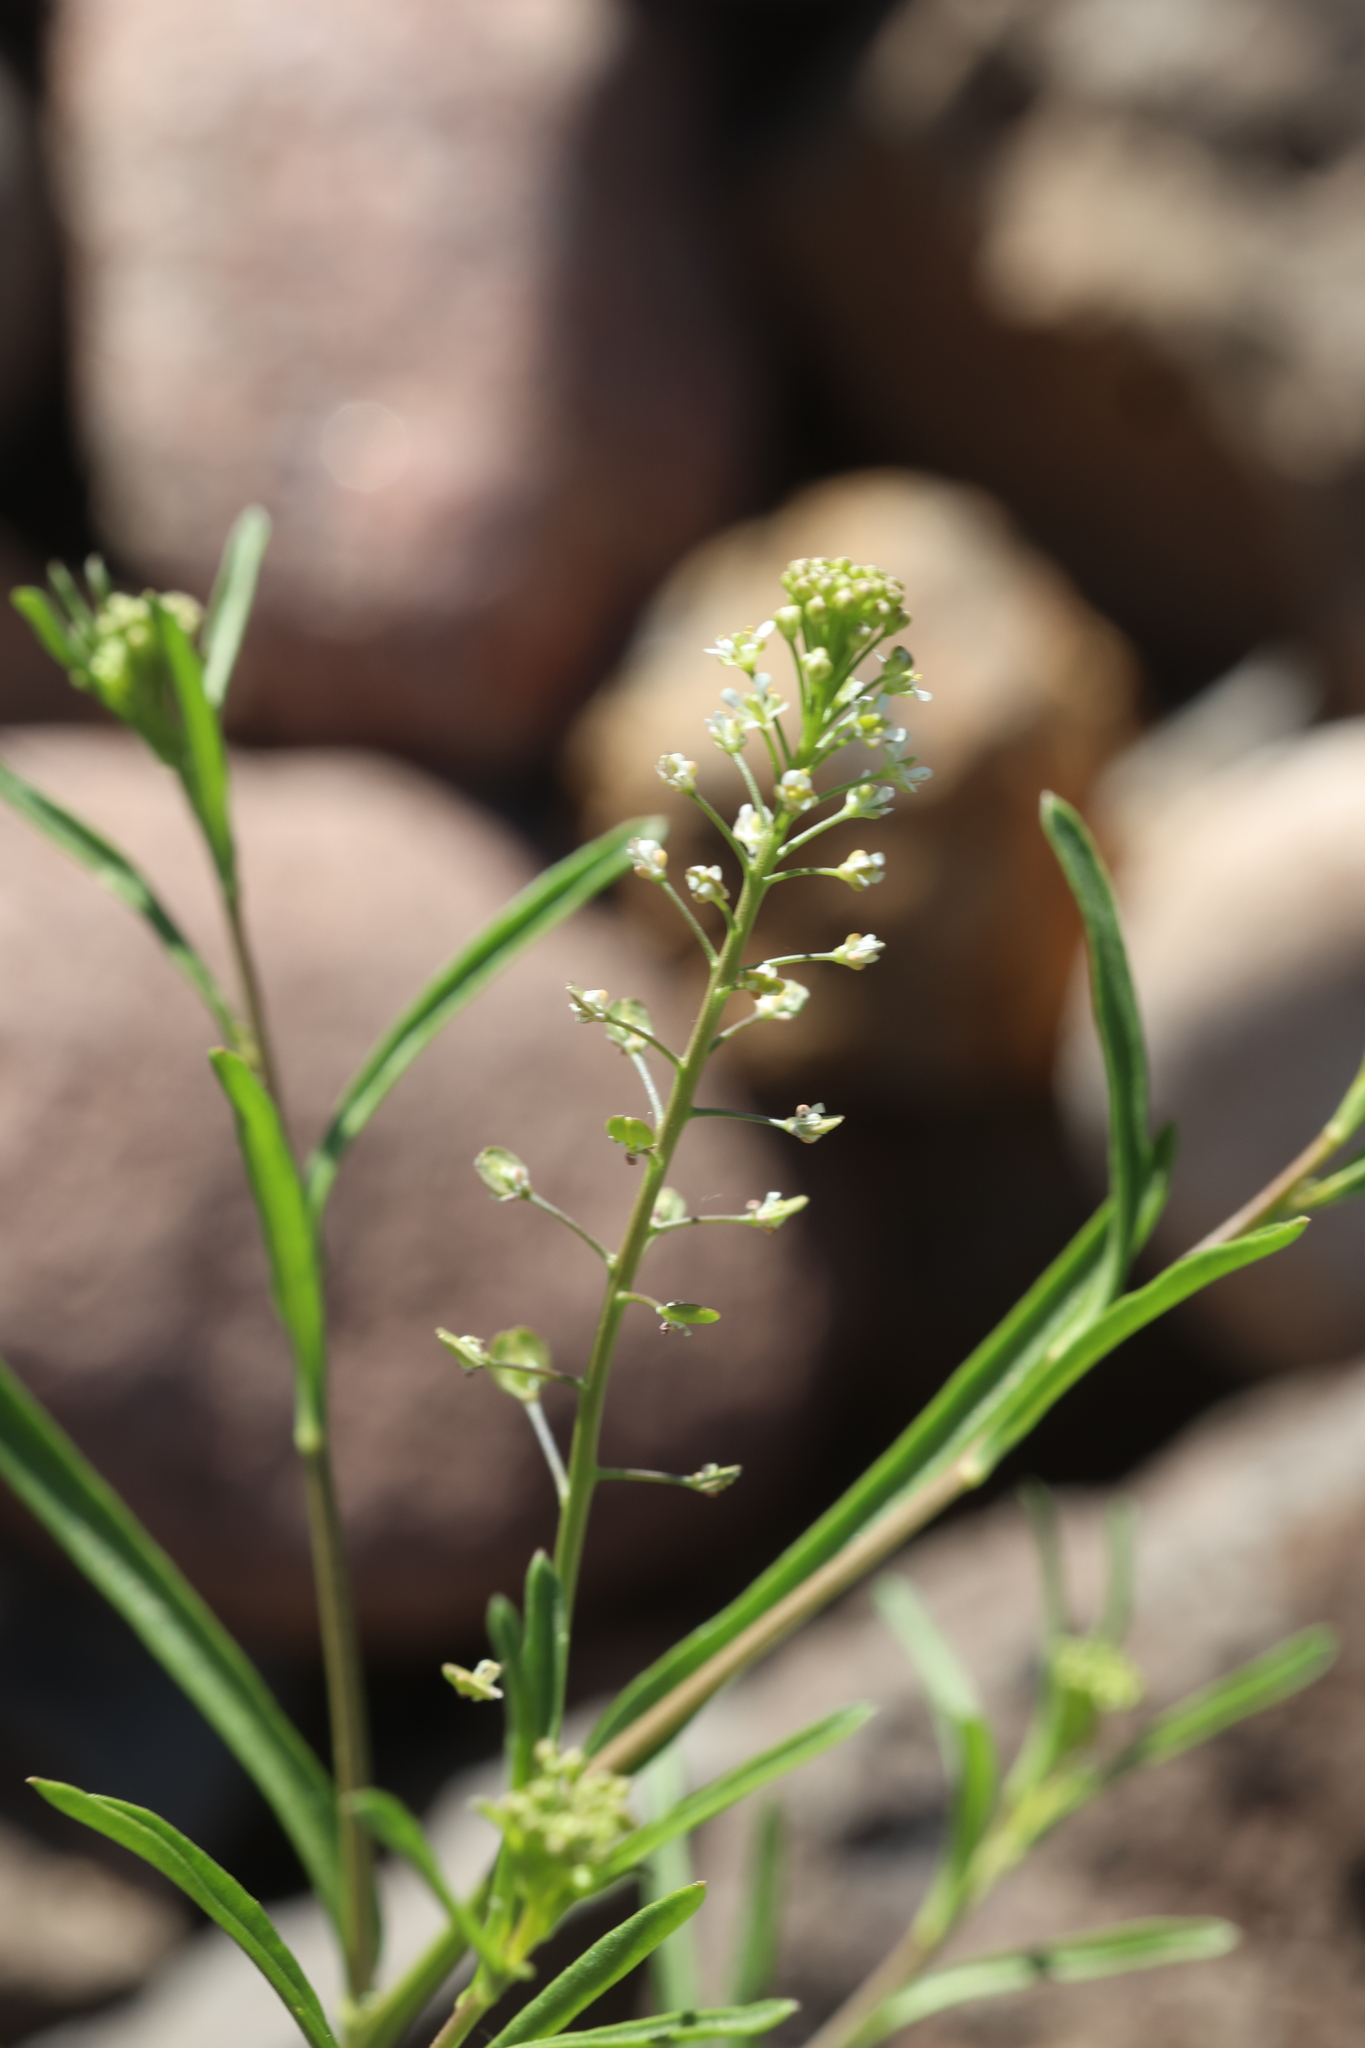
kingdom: Plantae
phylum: Tracheophyta
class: Magnoliopsida
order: Brassicales
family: Brassicaceae
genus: Lepidium
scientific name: Lepidium virginicum
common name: Least pepperwort
